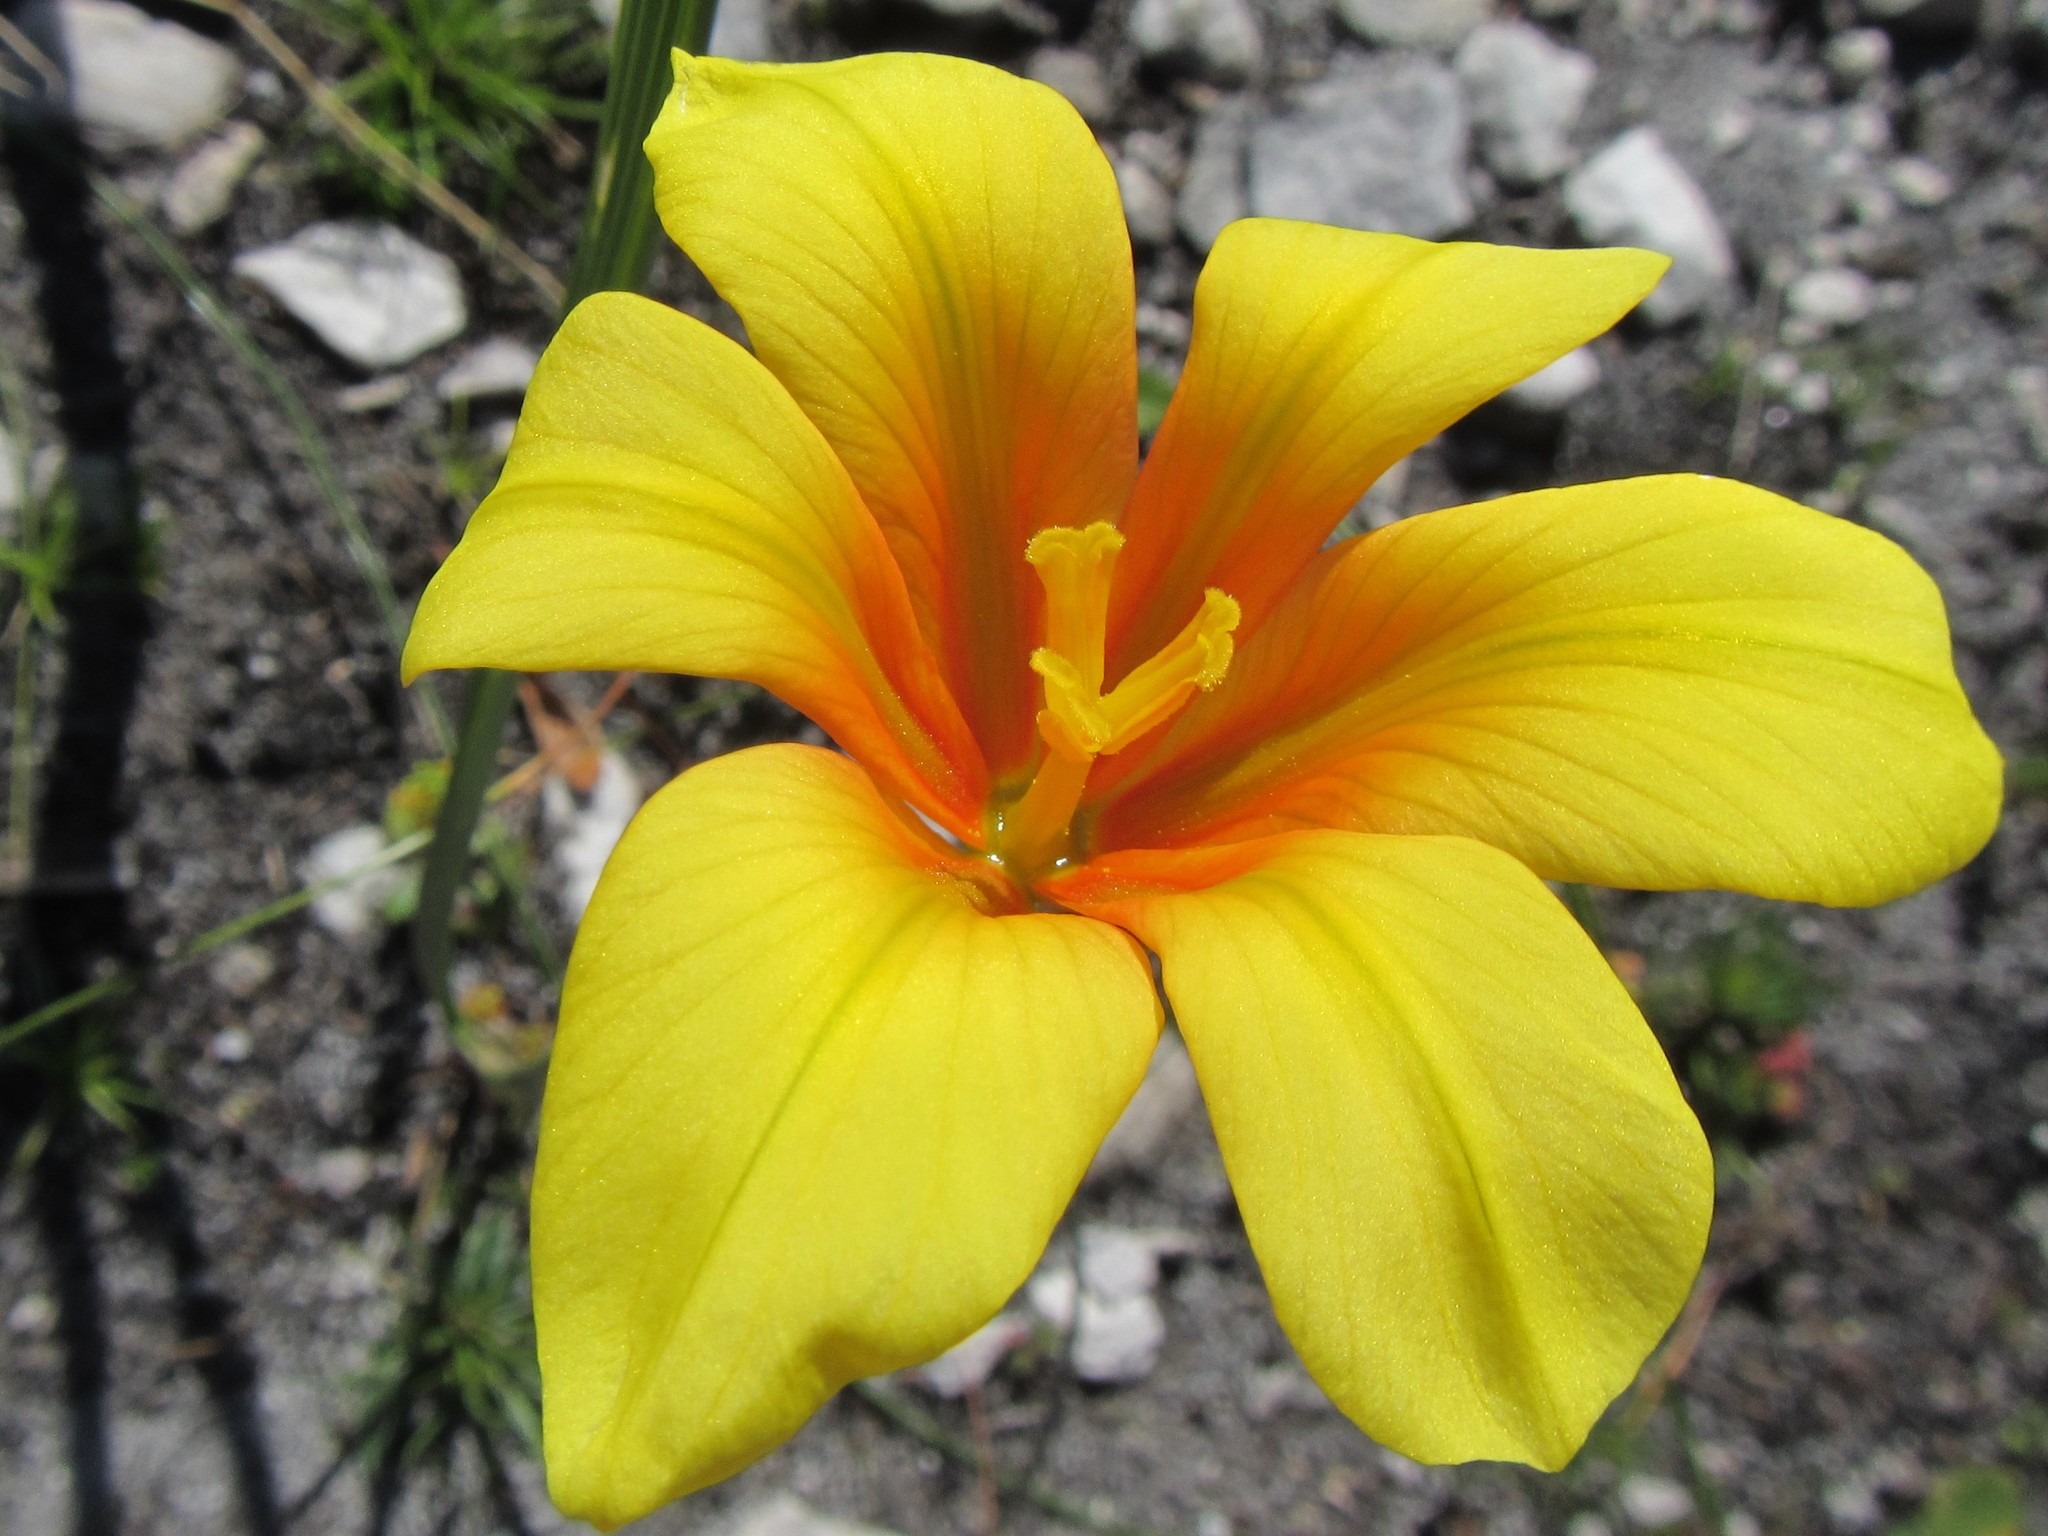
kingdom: Plantae
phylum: Tracheophyta
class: Liliopsida
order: Asparagales
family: Iridaceae
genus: Moraea
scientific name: Moraea ochroleuca
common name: Red tulp
